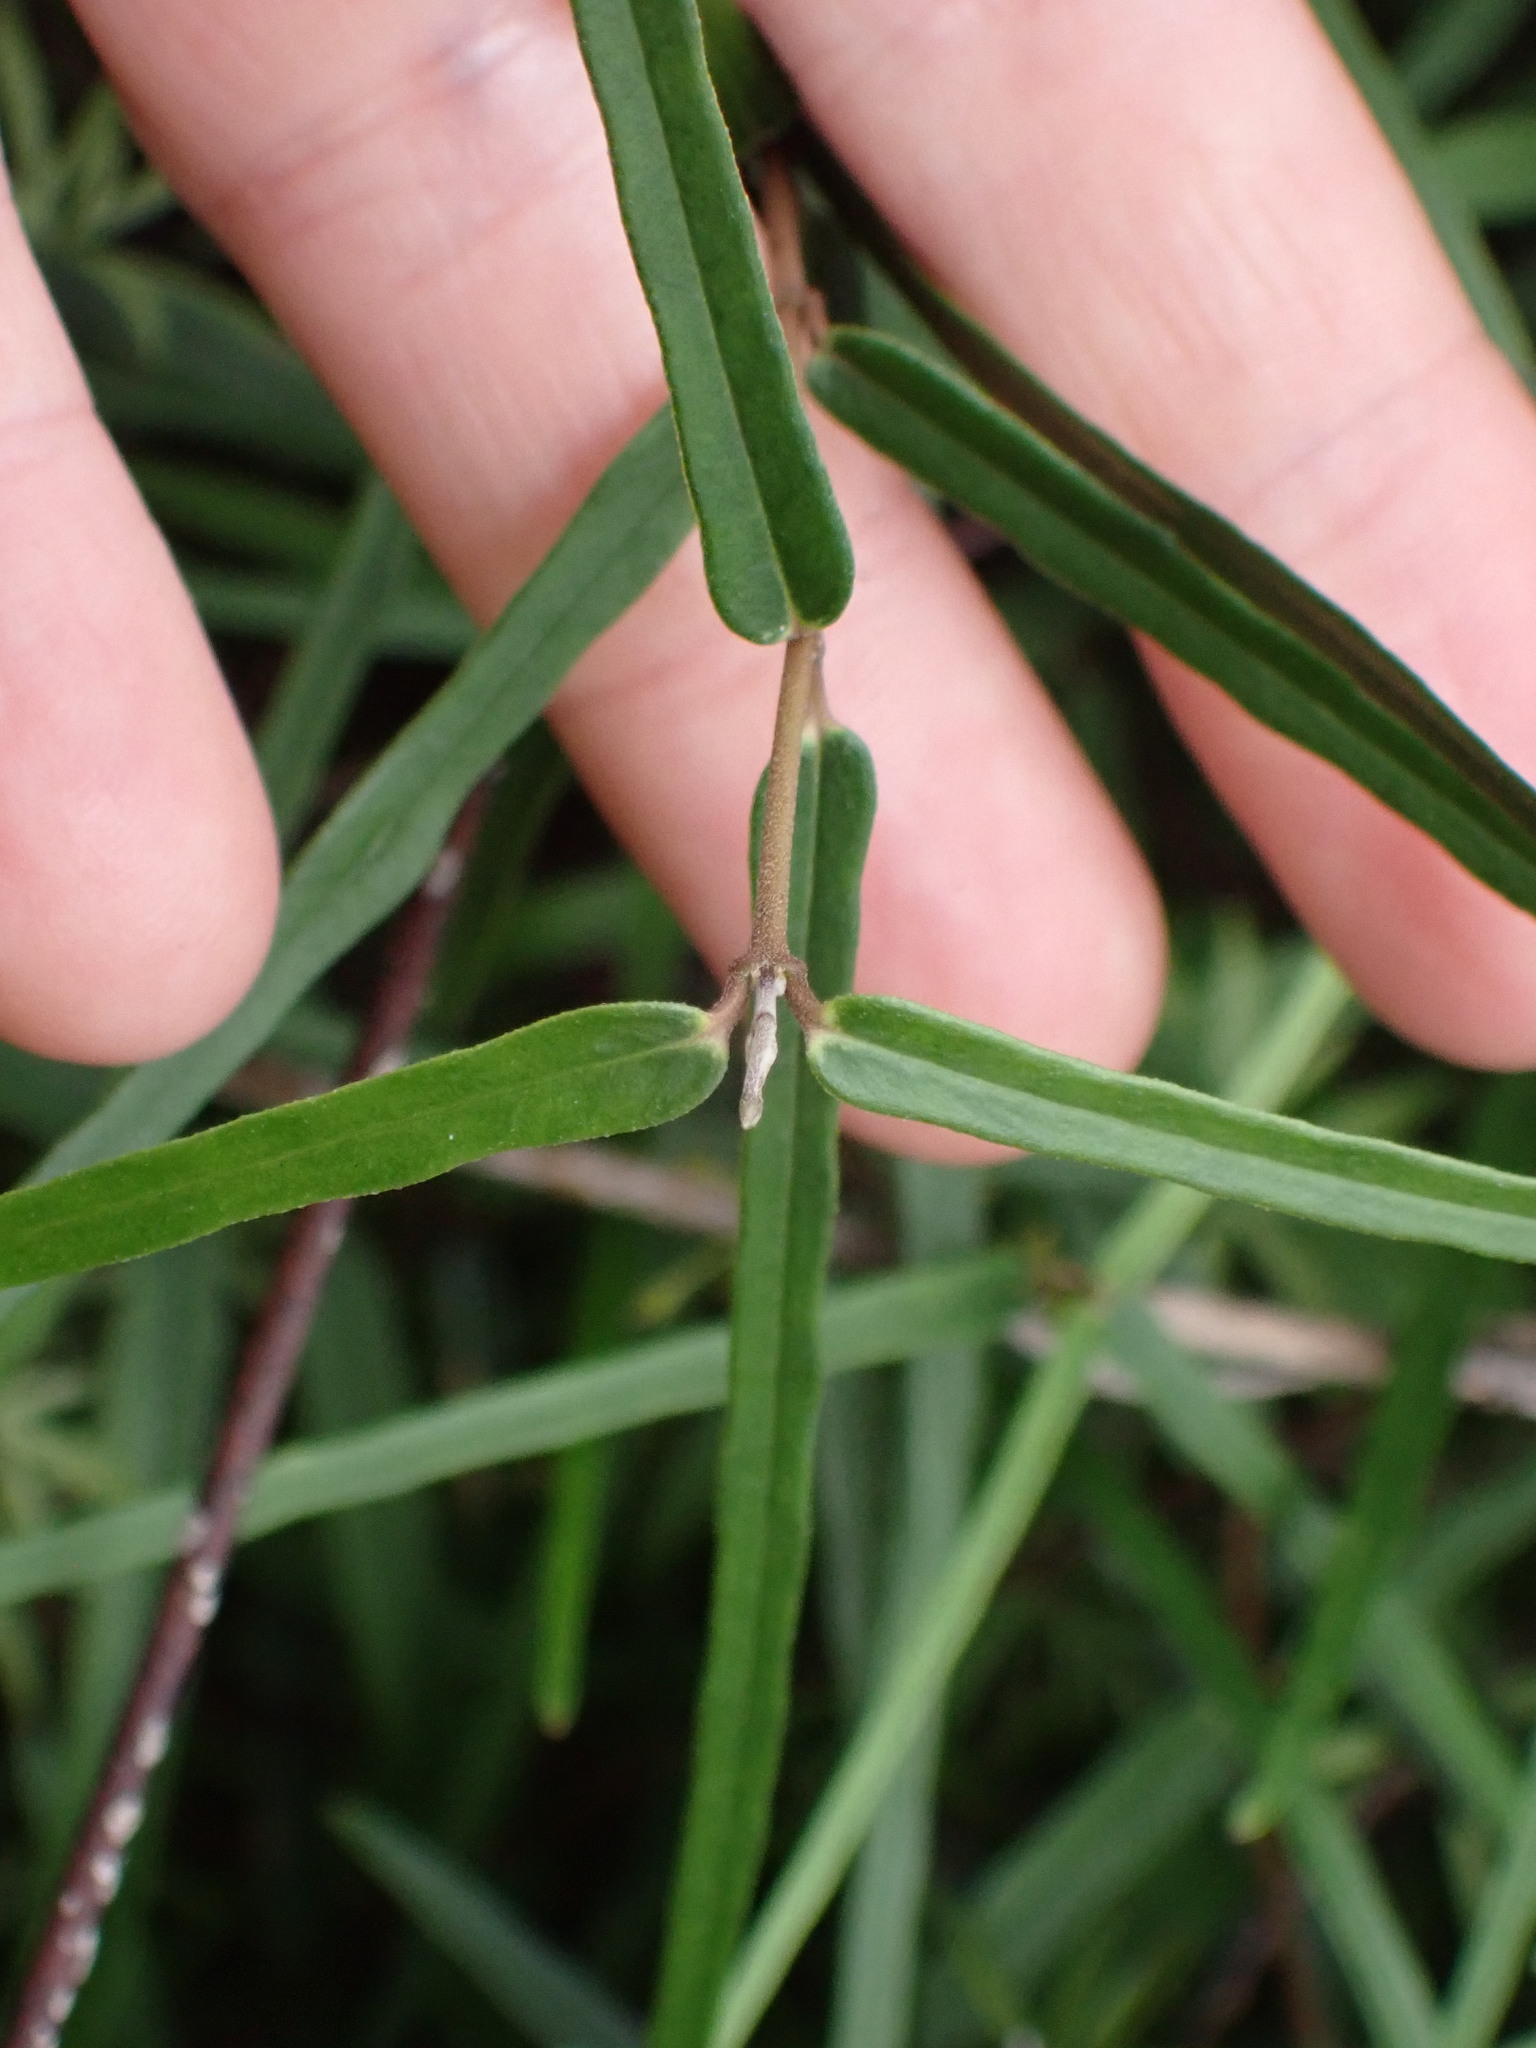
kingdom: Plantae
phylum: Tracheophyta
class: Magnoliopsida
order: Gentianales
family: Apocynaceae
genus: Parsonsia
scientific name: Parsonsia capsularis
